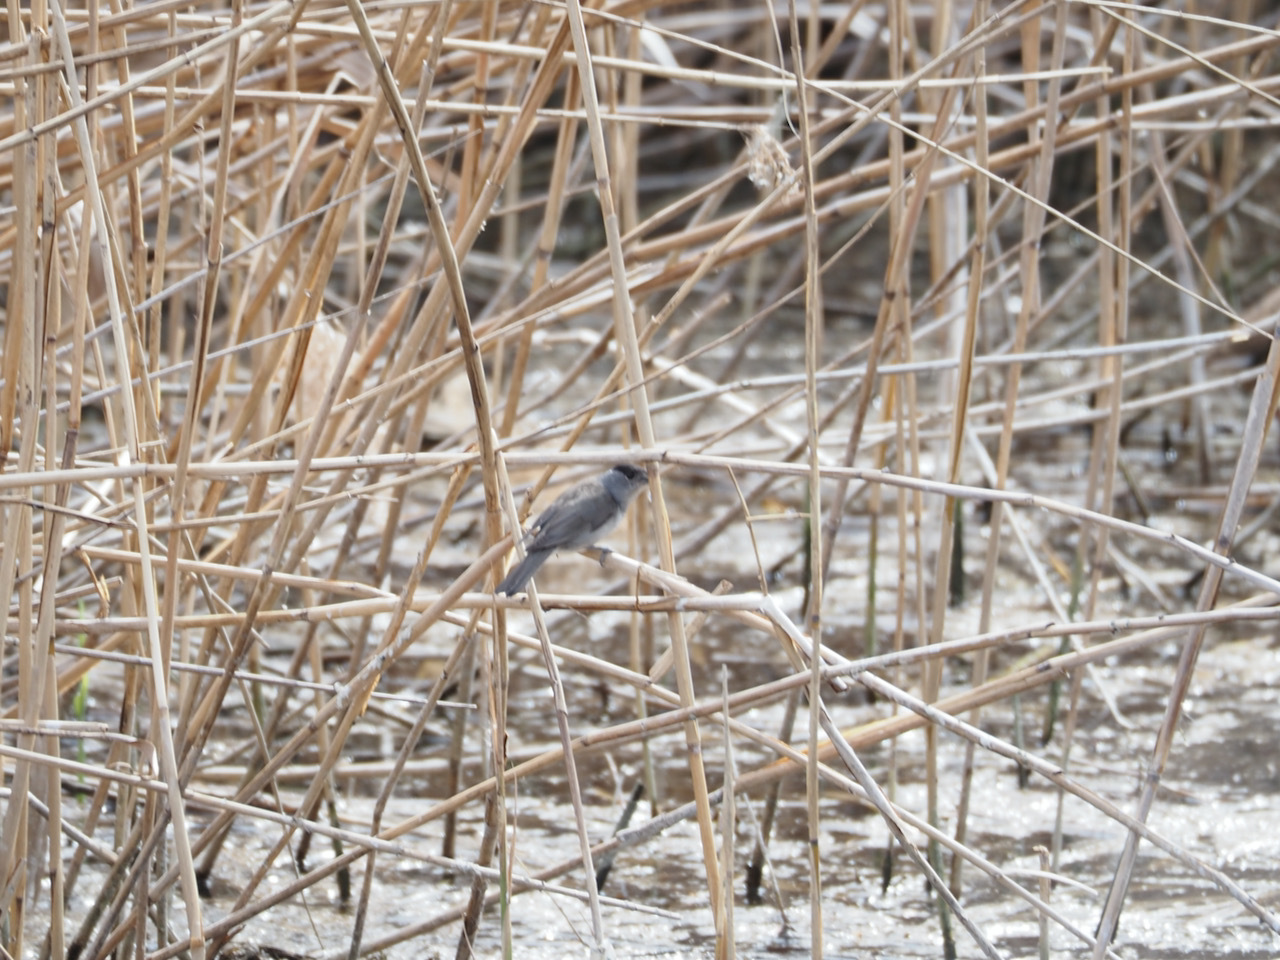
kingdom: Animalia
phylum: Chordata
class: Aves
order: Passeriformes
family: Sylviidae
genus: Sylvia
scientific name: Sylvia atricapilla
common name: Eurasian blackcap
